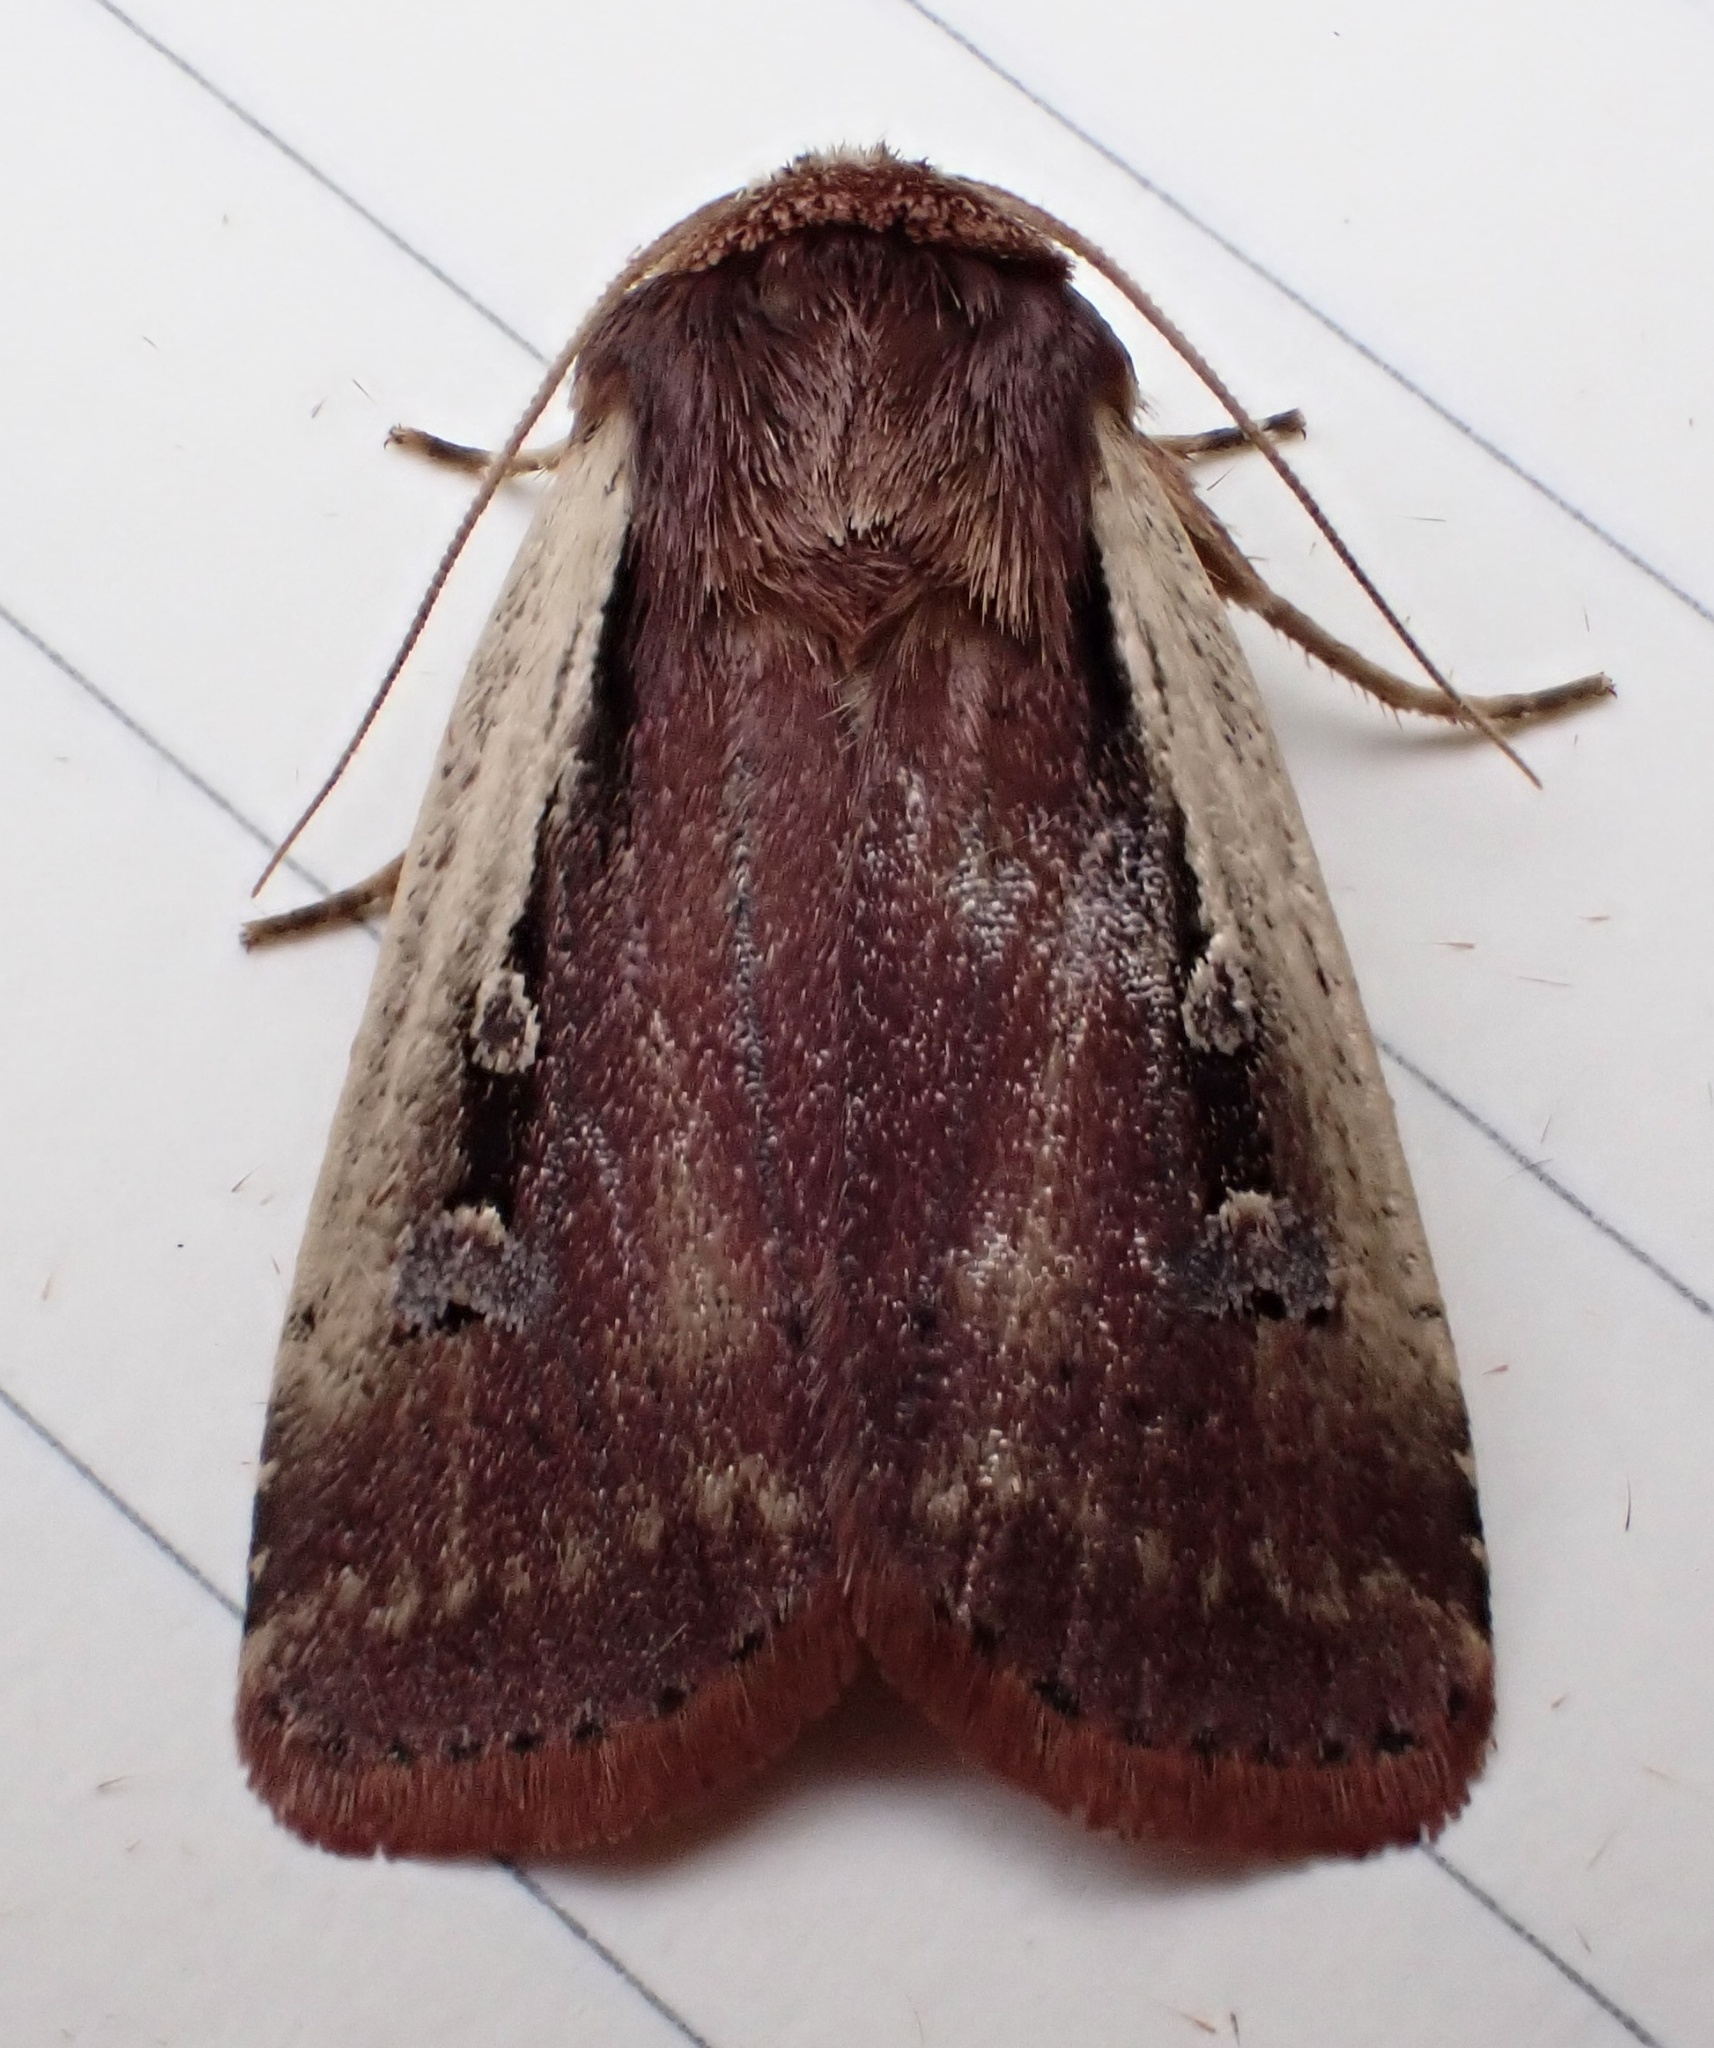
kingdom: Animalia
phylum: Arthropoda
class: Insecta
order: Lepidoptera
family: Noctuidae
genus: Ochropleura
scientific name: Ochropleura implecta
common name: Flame-shouldered dart
